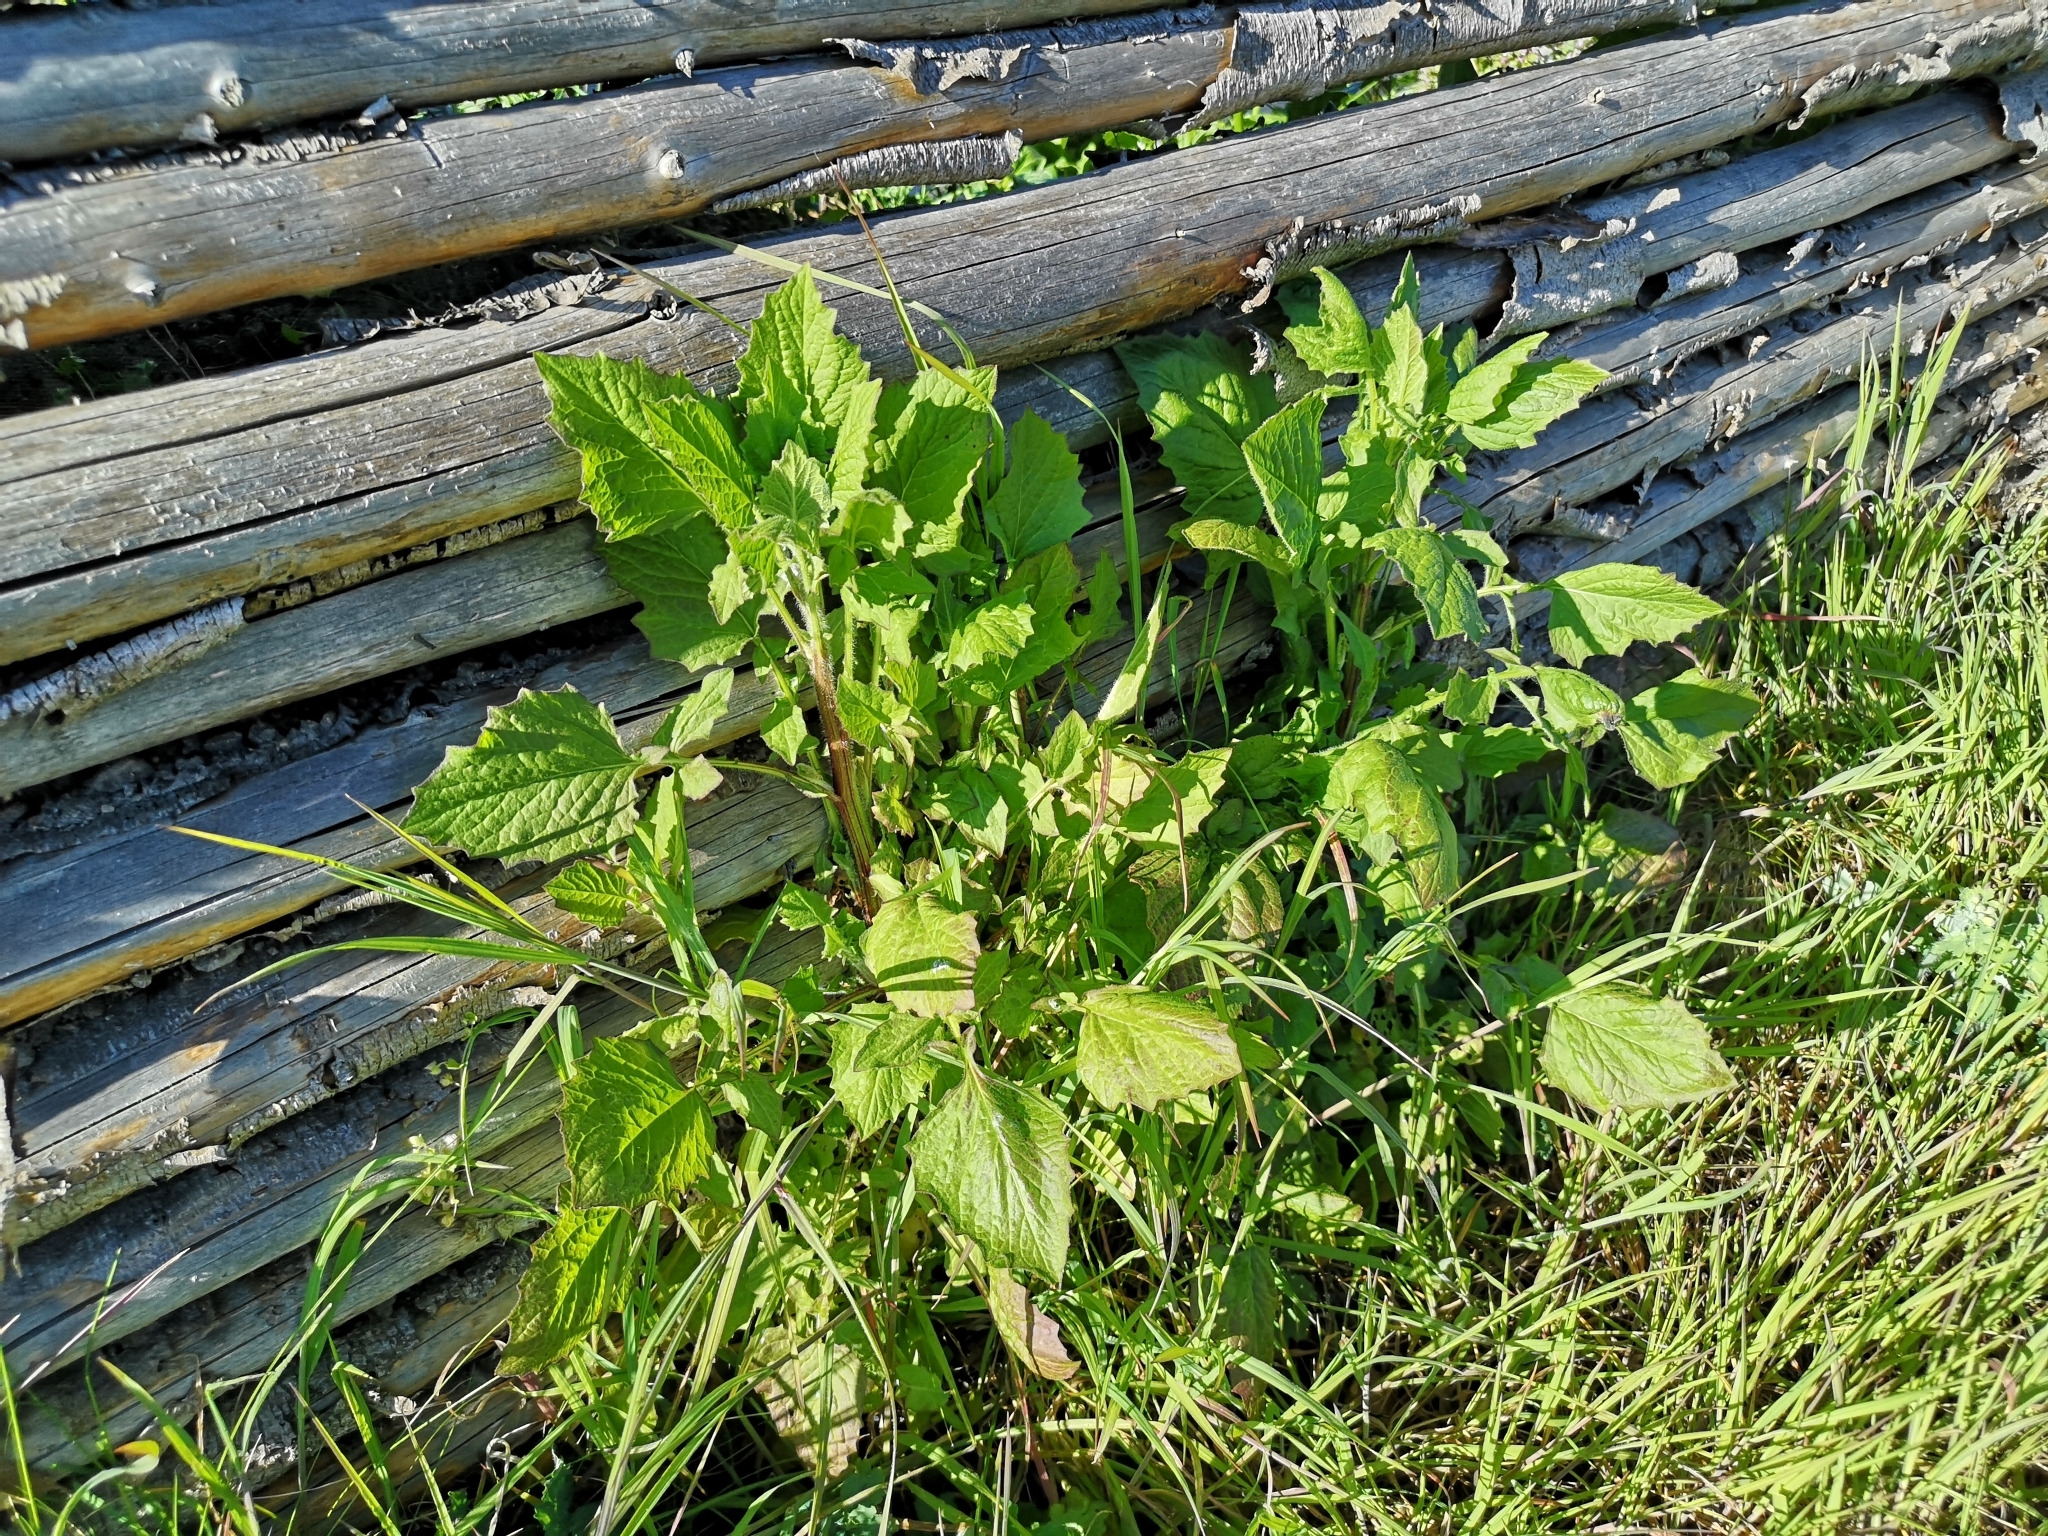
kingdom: Plantae
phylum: Tracheophyta
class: Magnoliopsida
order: Asterales
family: Asteraceae
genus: Lapsana
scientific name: Lapsana communis
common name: Nipplewort
